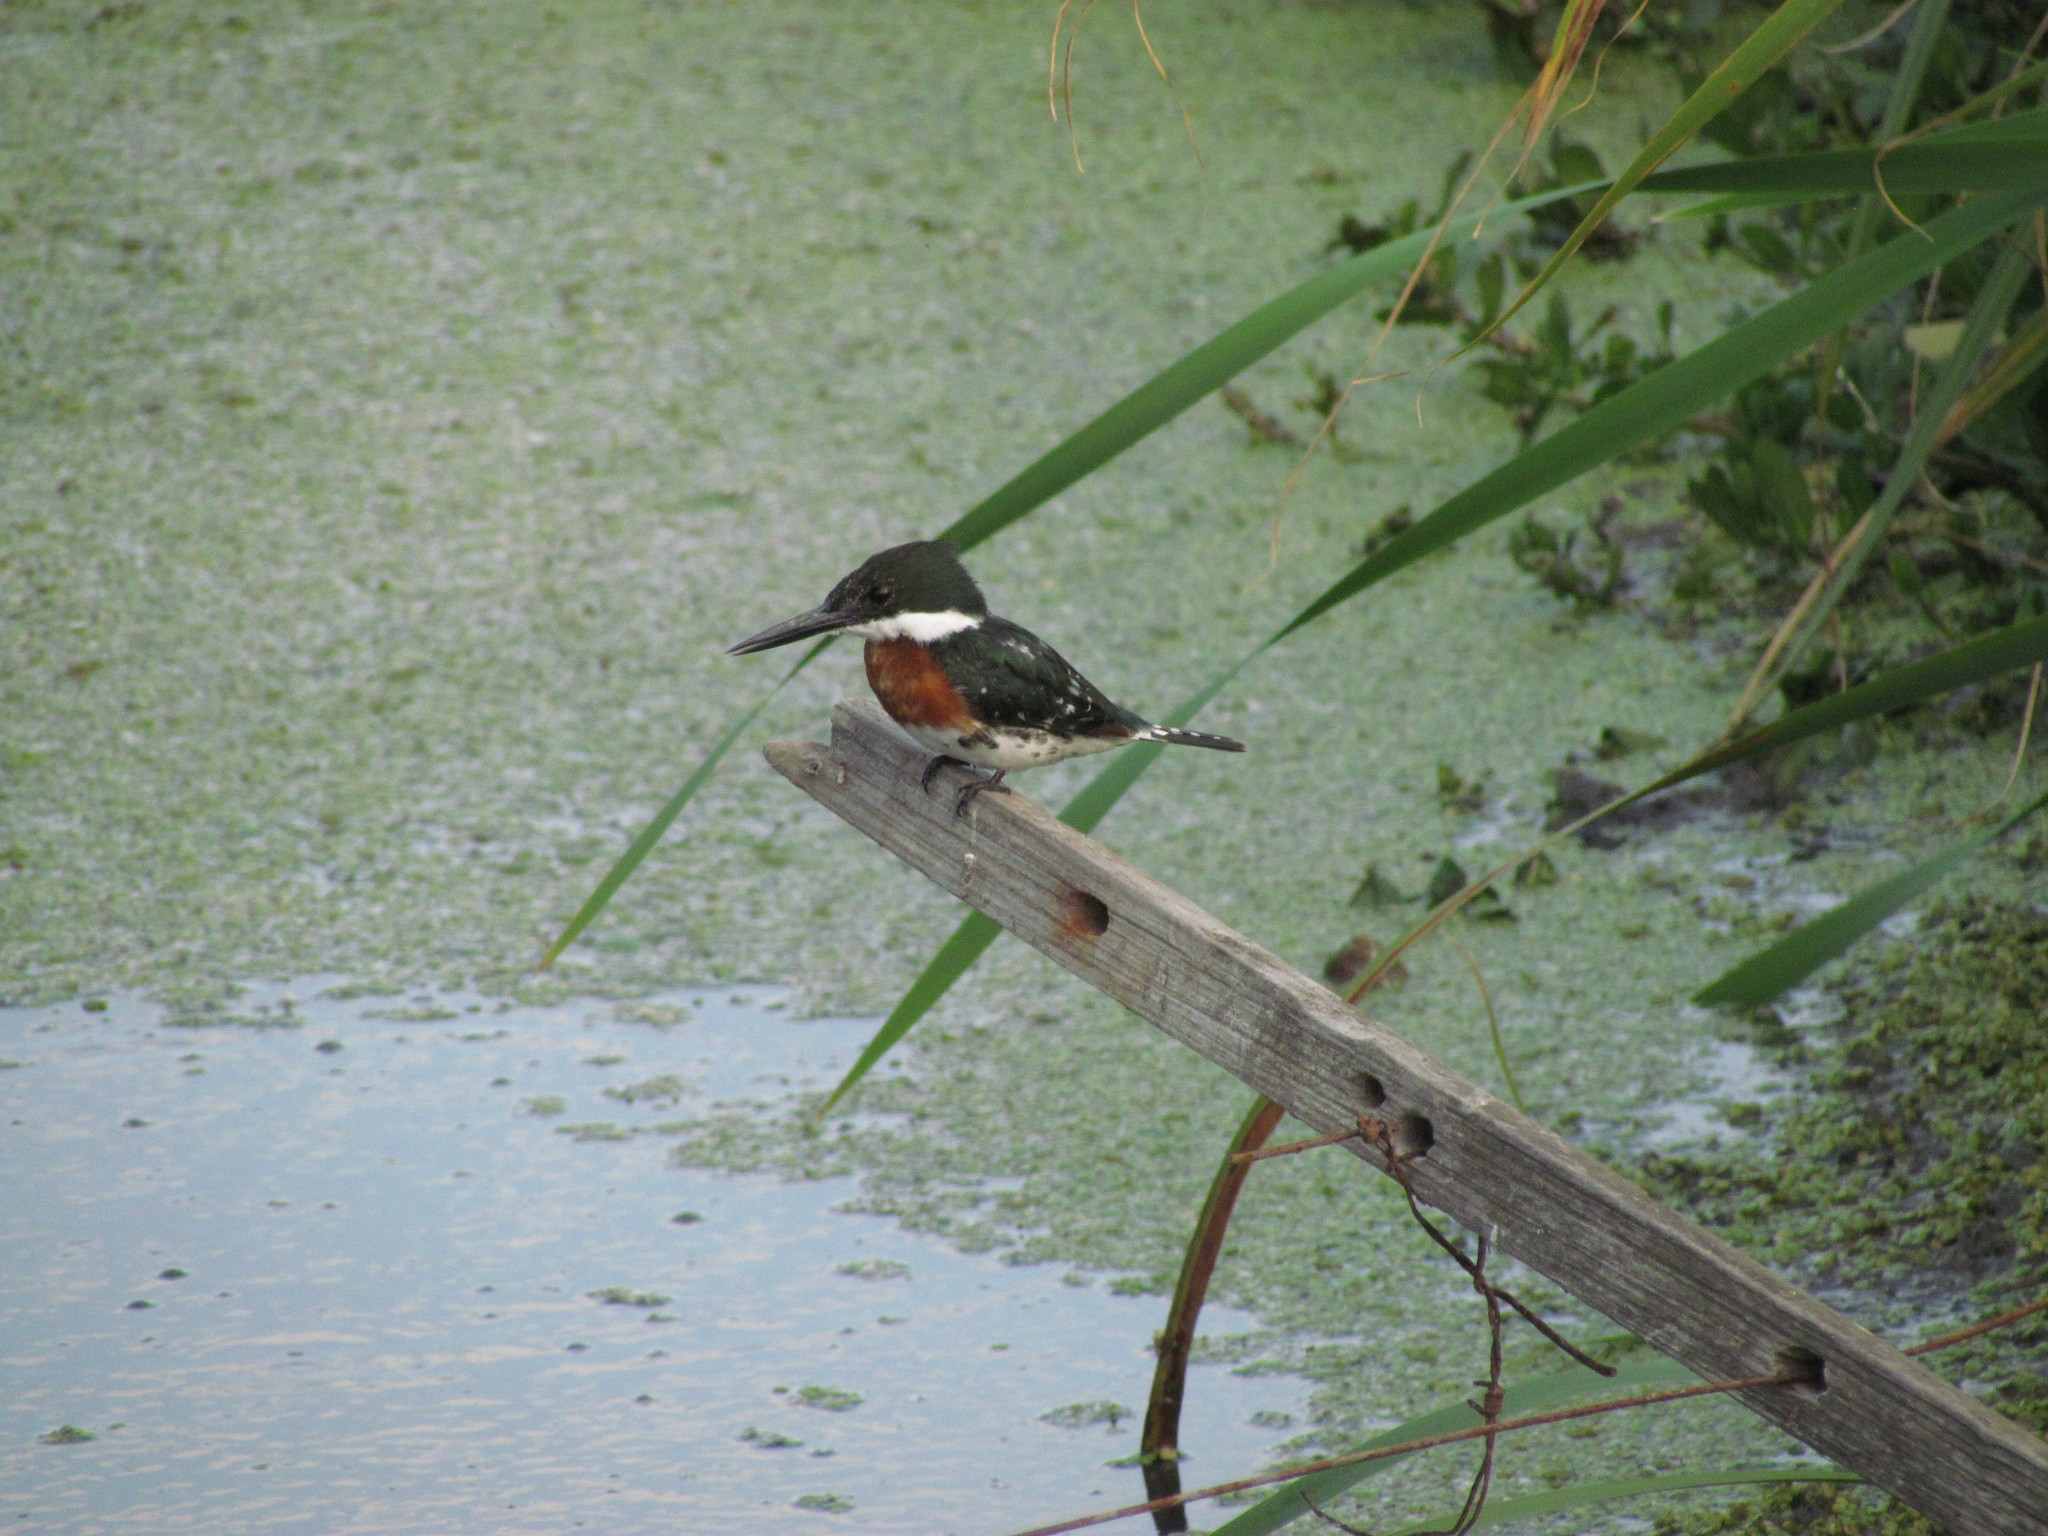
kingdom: Animalia
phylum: Chordata
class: Aves
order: Coraciiformes
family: Alcedinidae
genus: Chloroceryle
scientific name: Chloroceryle americana
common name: Green kingfisher
